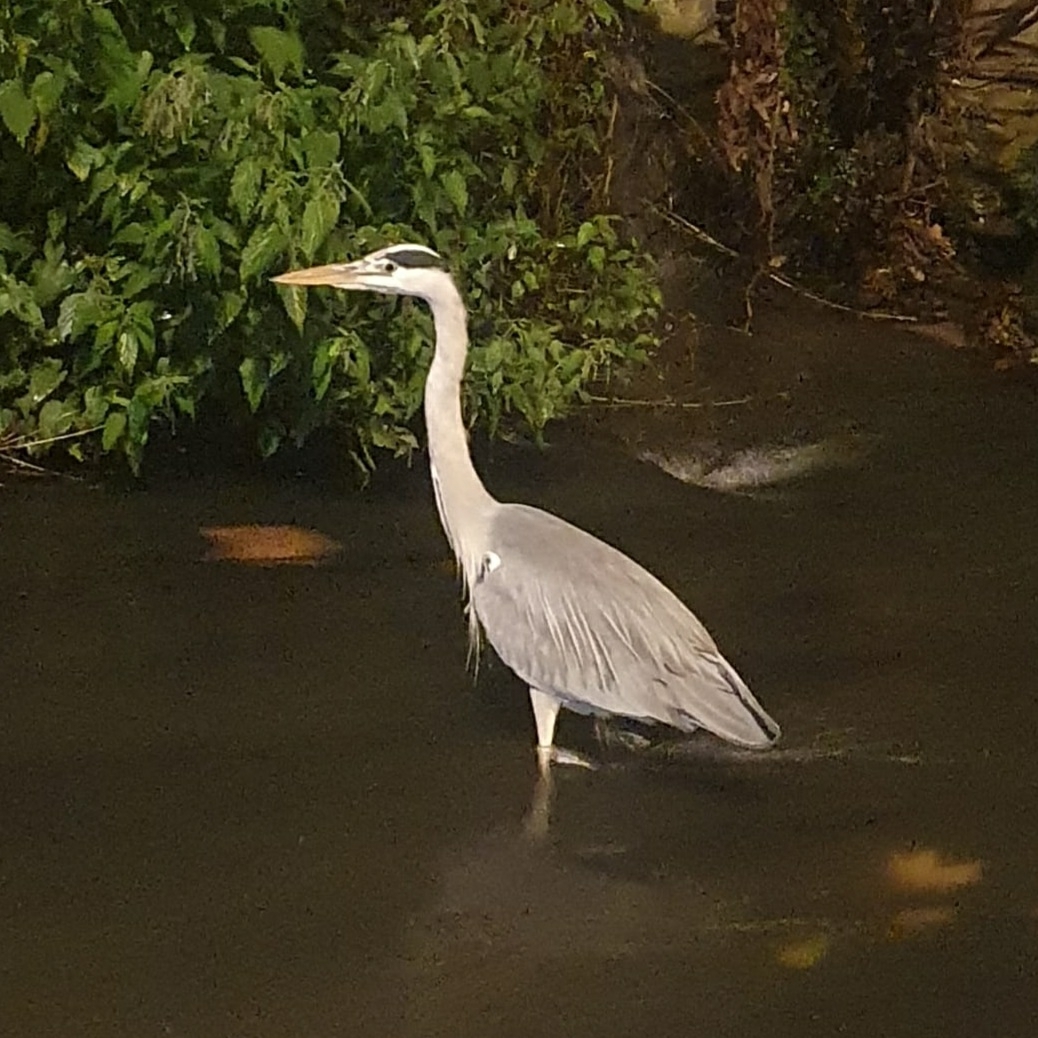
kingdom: Animalia
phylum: Chordata
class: Aves
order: Pelecaniformes
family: Ardeidae
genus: Ardea
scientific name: Ardea cinerea
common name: Grey heron
